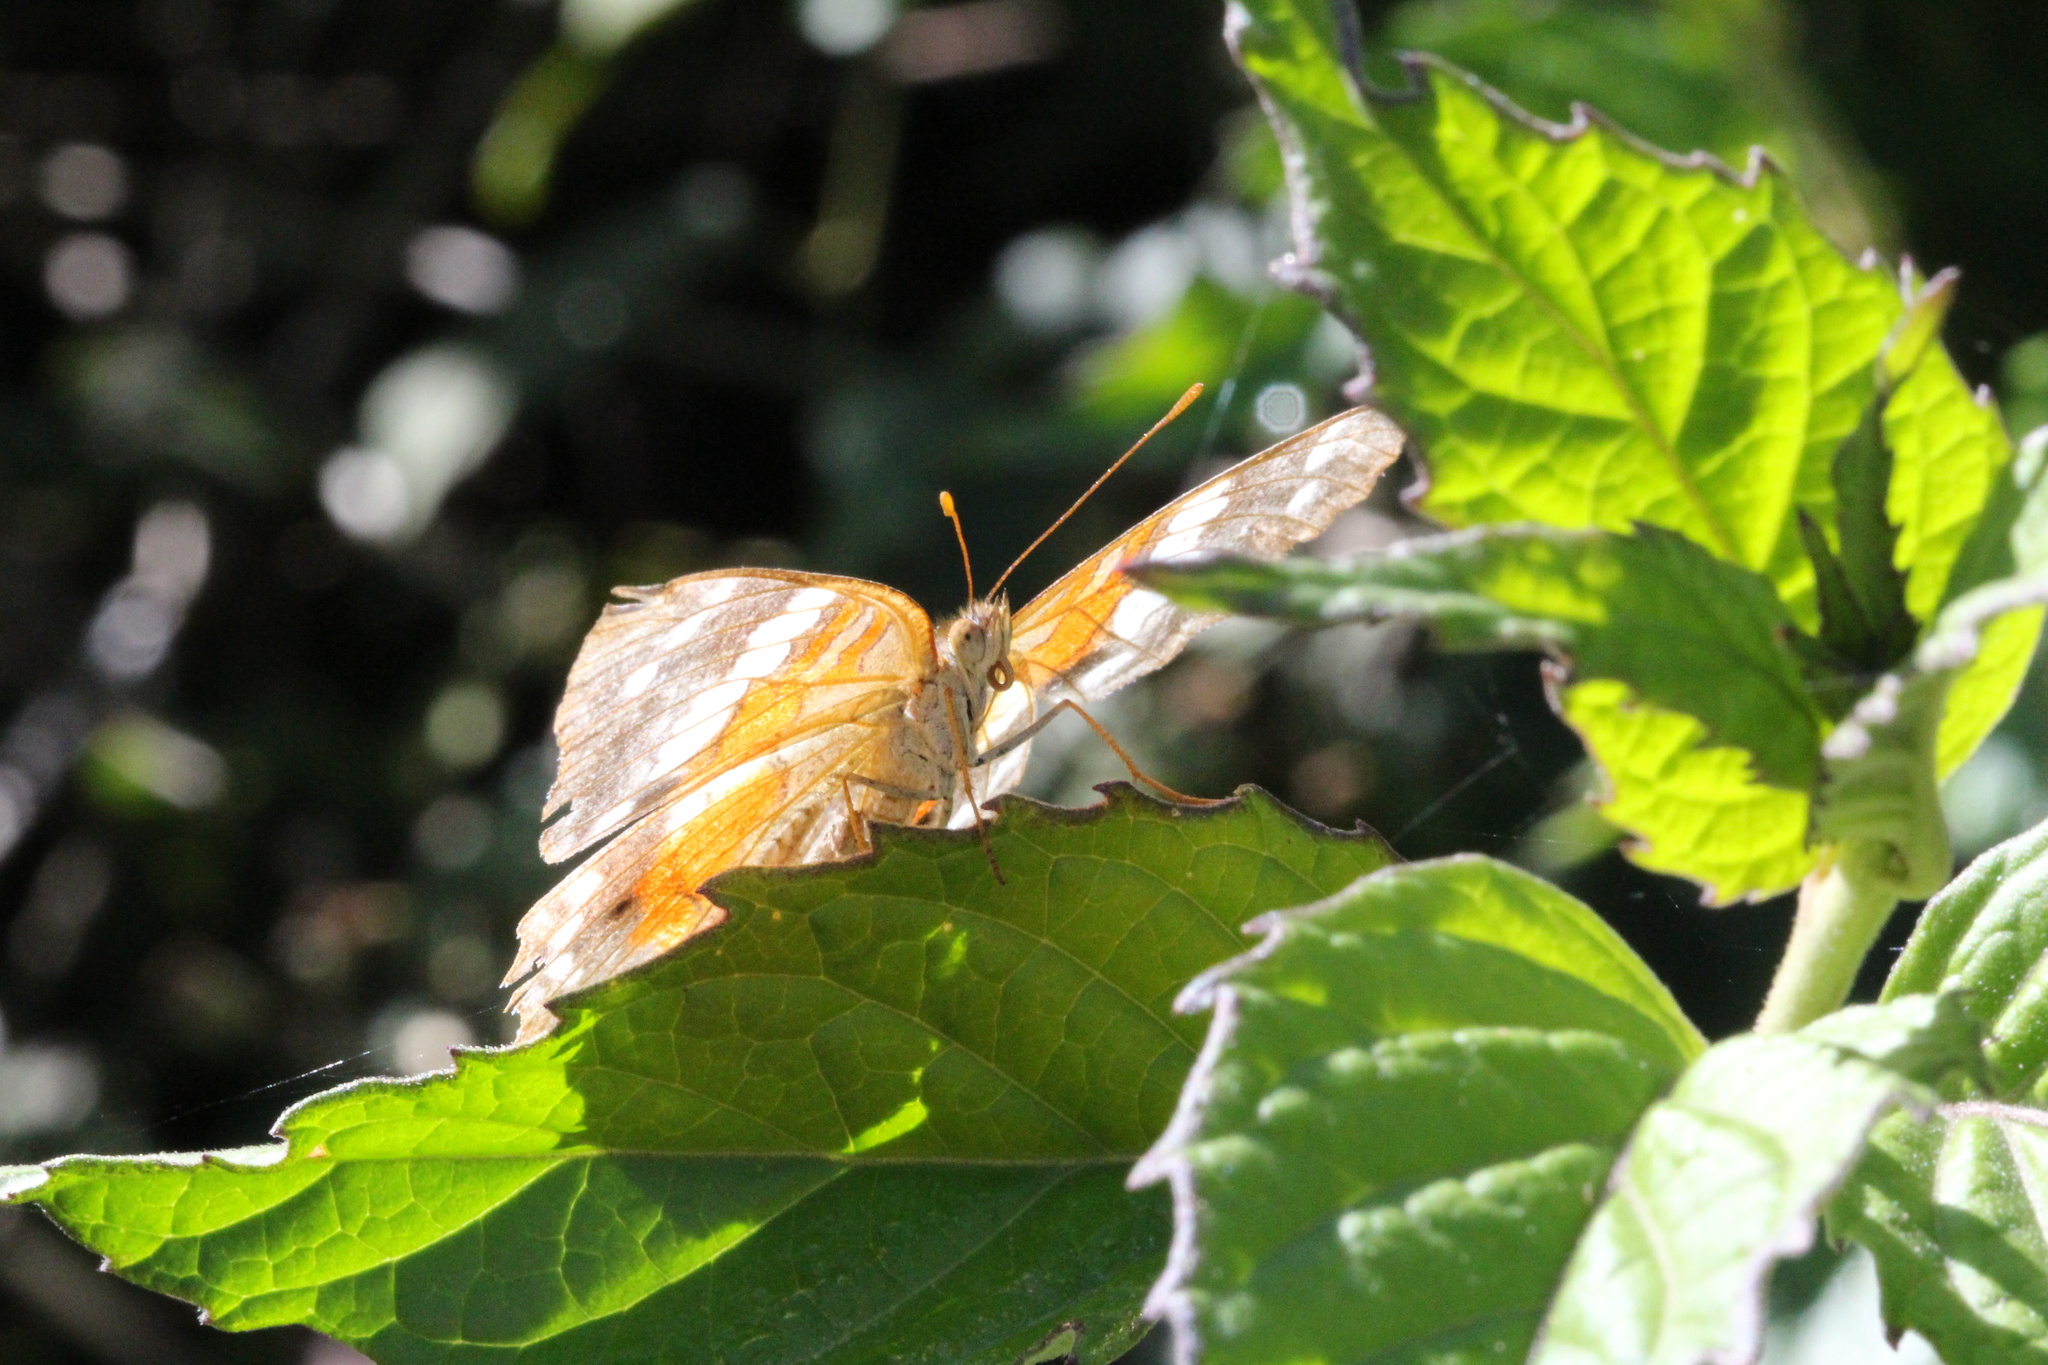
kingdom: Animalia
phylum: Arthropoda
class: Insecta
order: Lepidoptera
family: Nymphalidae
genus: Anartia
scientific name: Anartia amathea
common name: Red peacock
